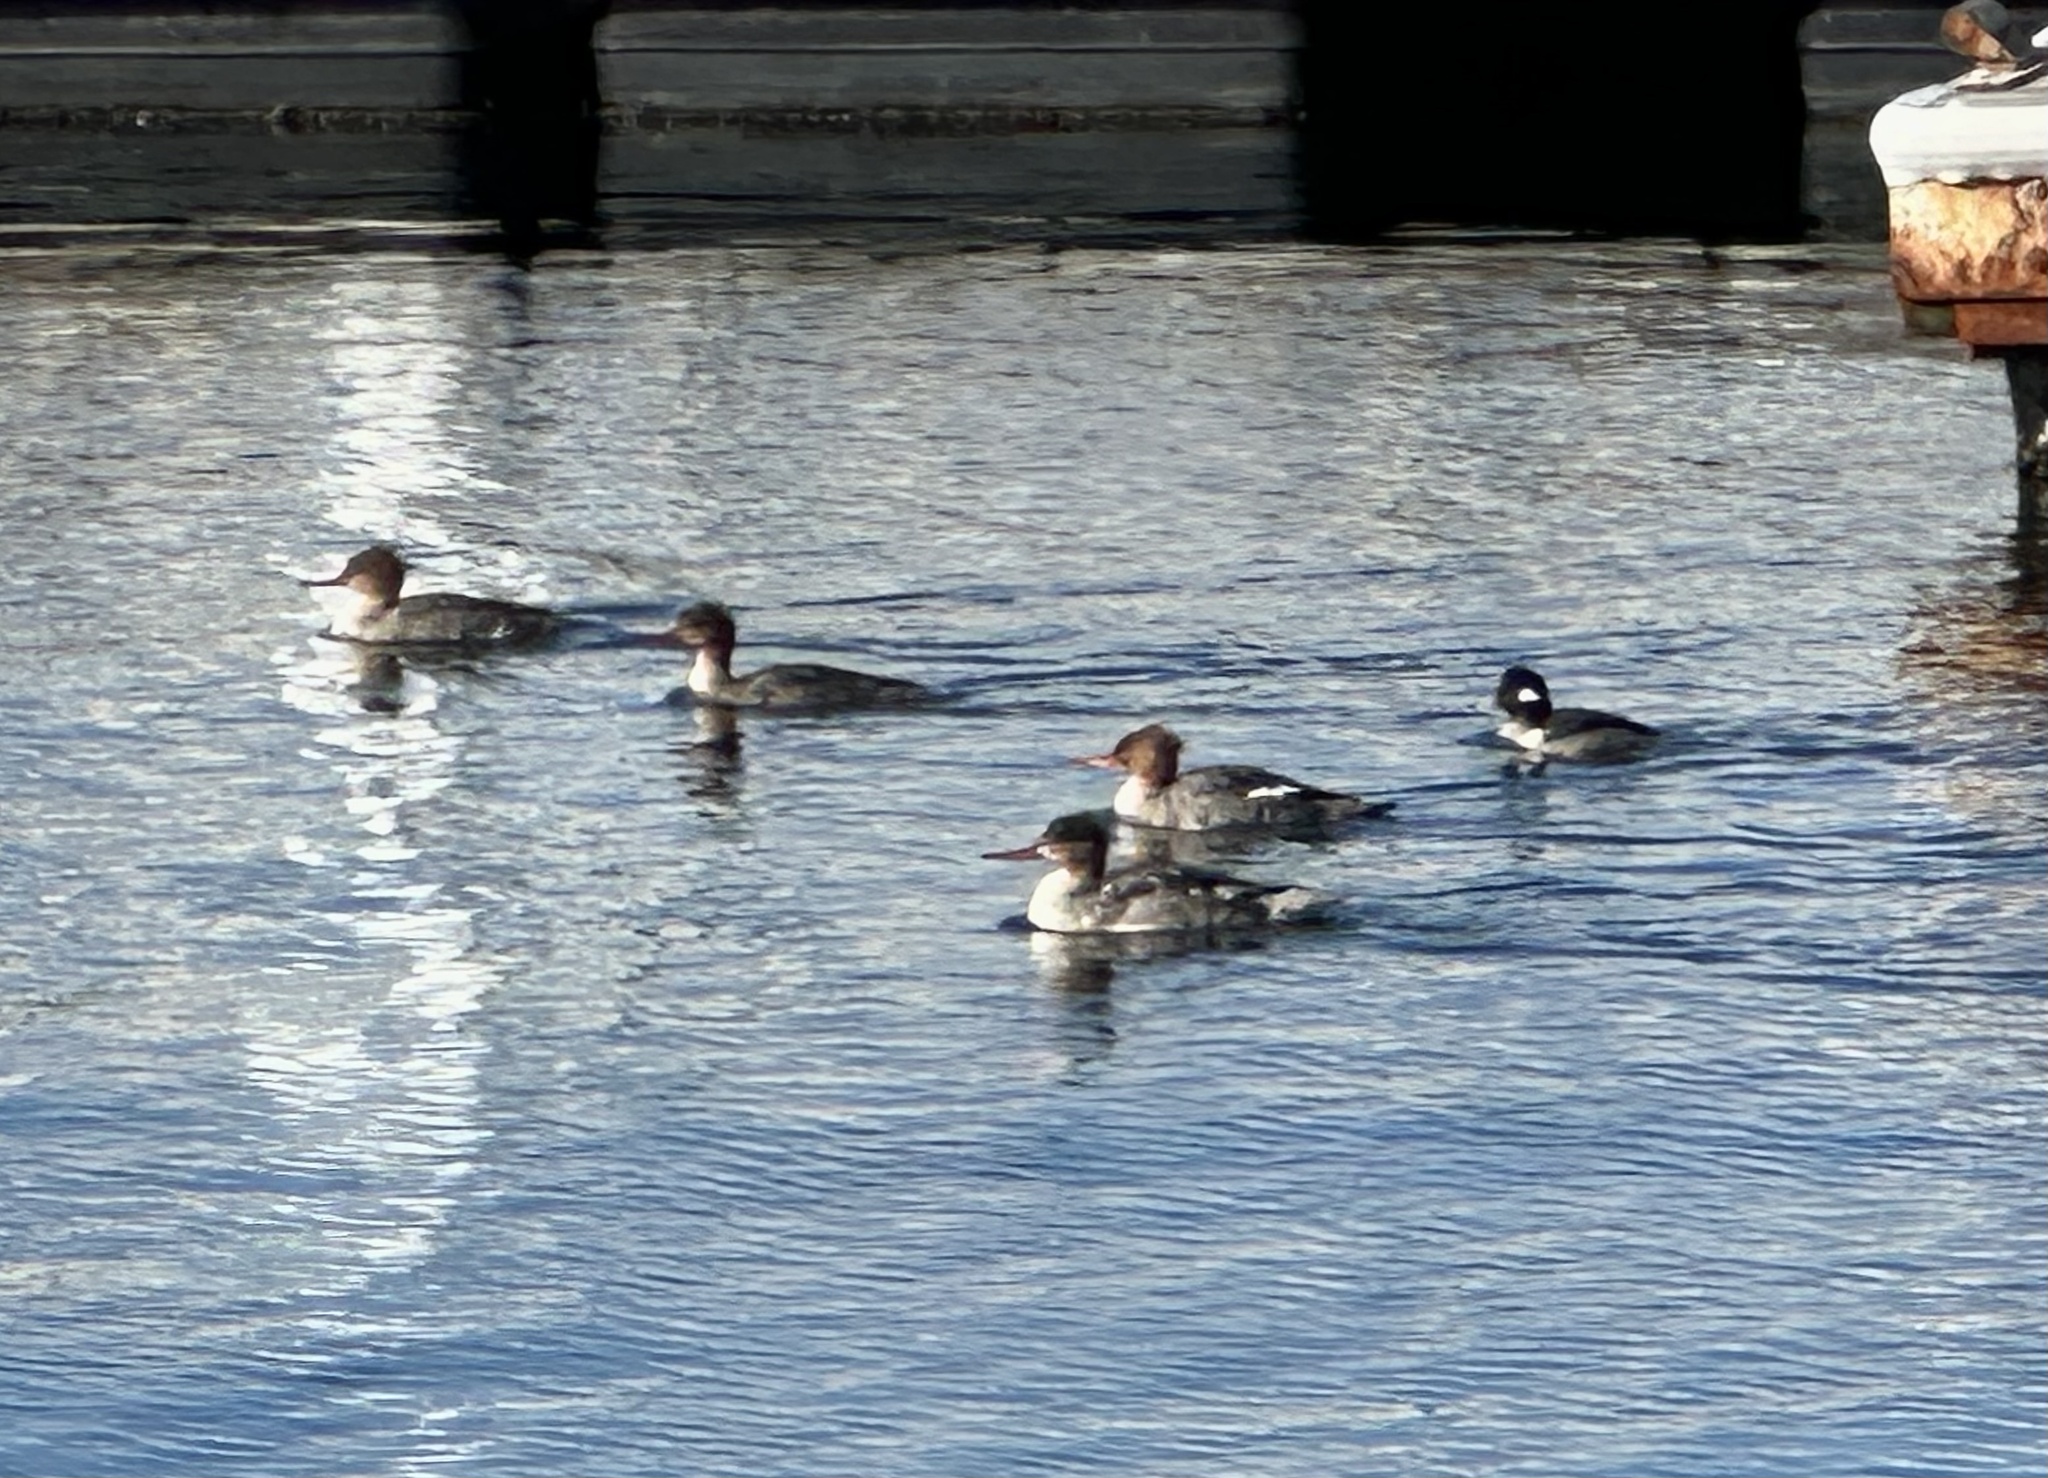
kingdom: Animalia
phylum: Chordata
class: Aves
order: Anseriformes
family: Anatidae
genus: Mergus
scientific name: Mergus serrator
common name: Red-breasted merganser
